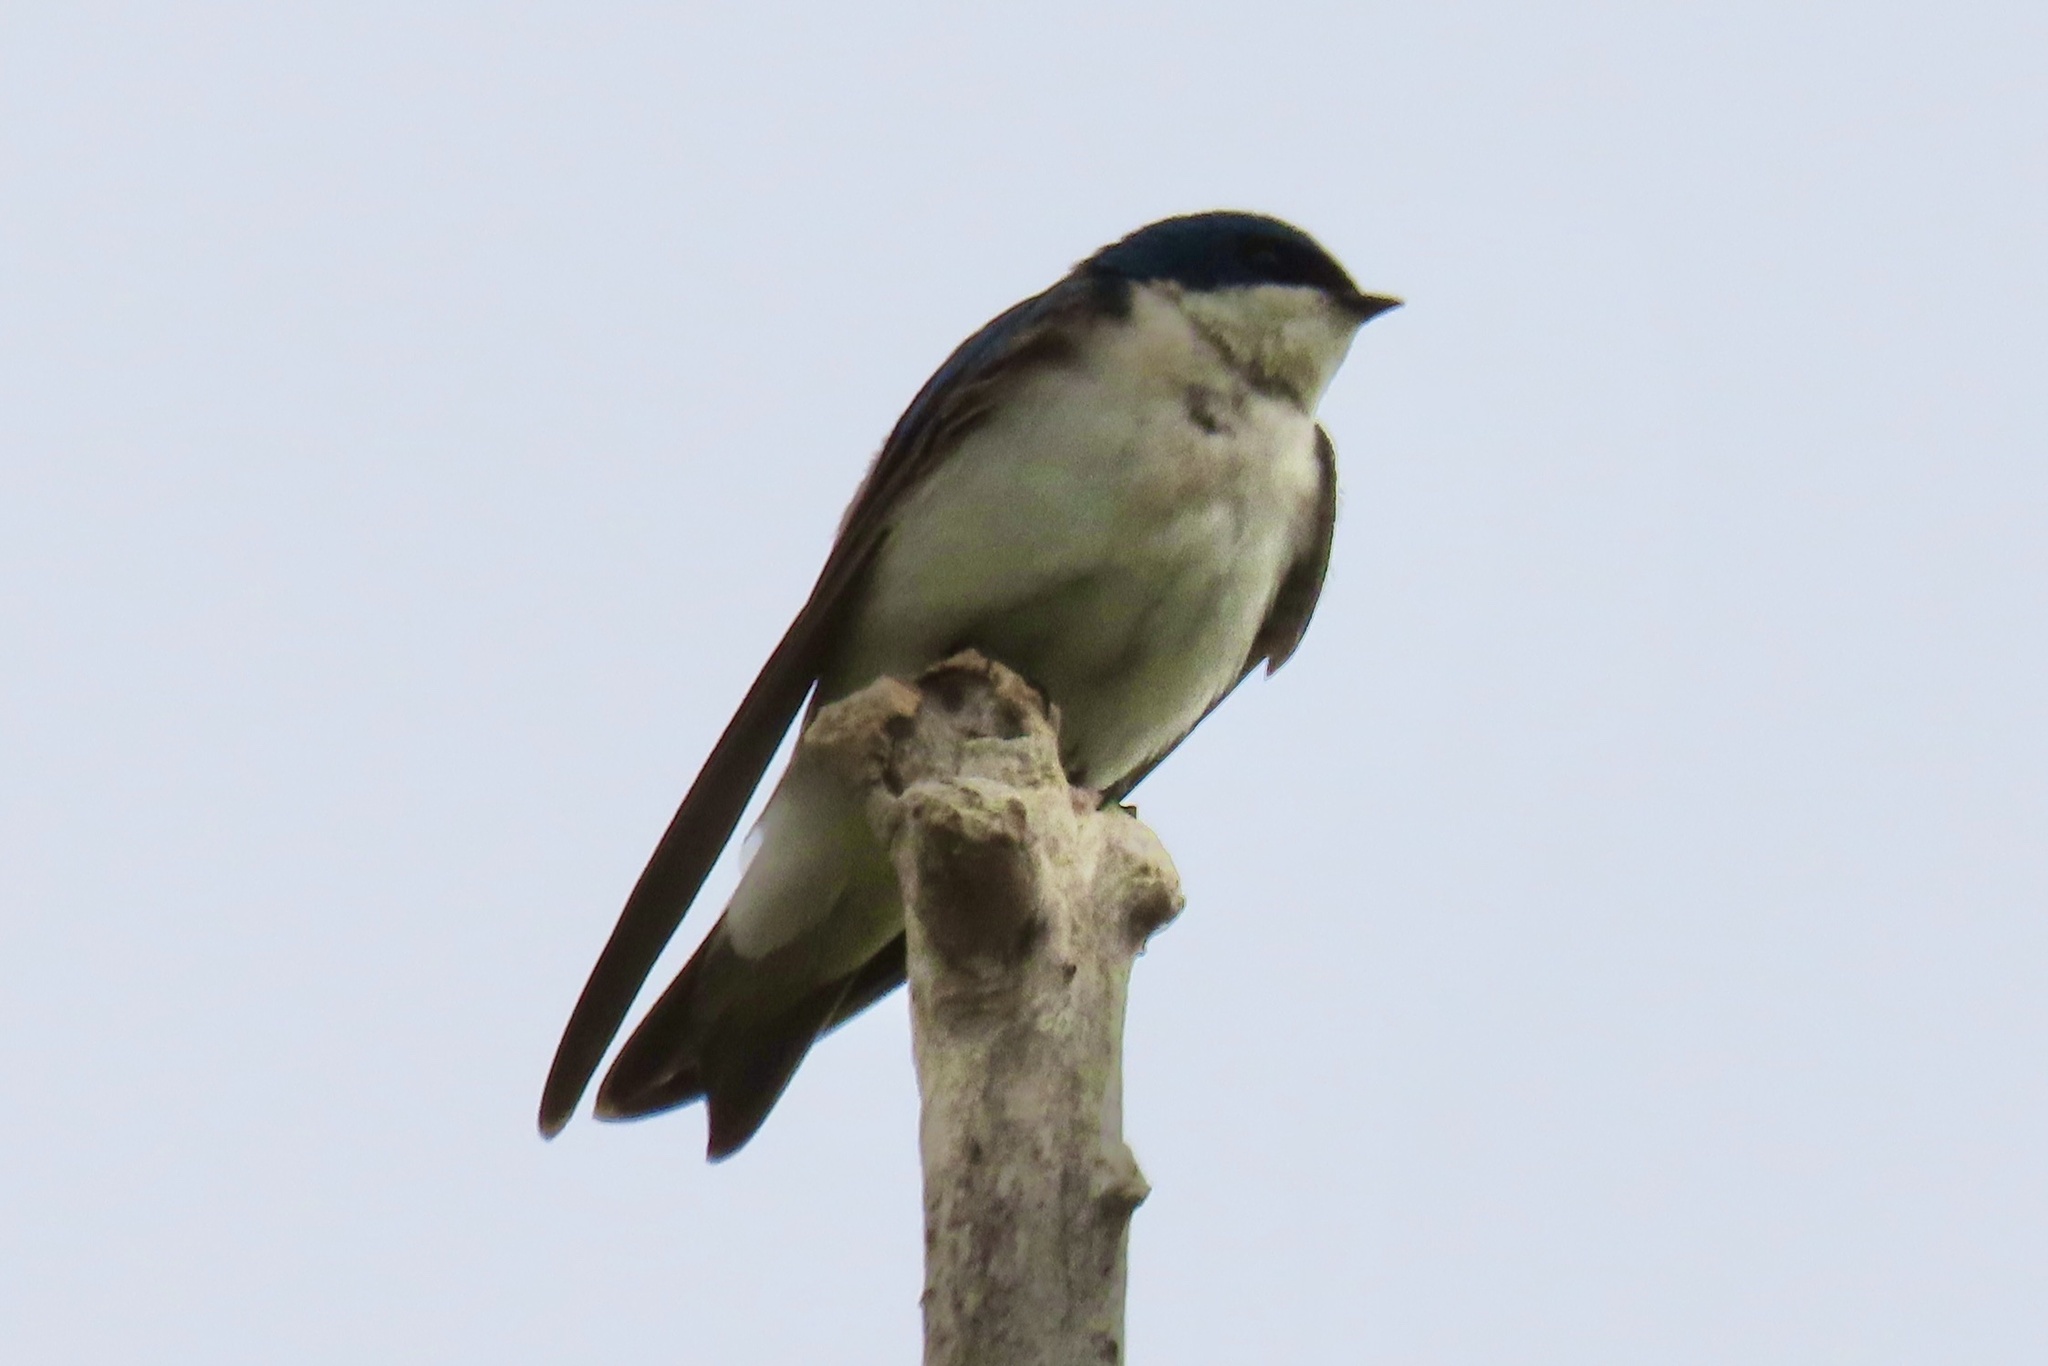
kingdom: Animalia
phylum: Chordata
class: Aves
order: Passeriformes
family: Hirundinidae
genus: Tachycineta
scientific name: Tachycineta bicolor
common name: Tree swallow
